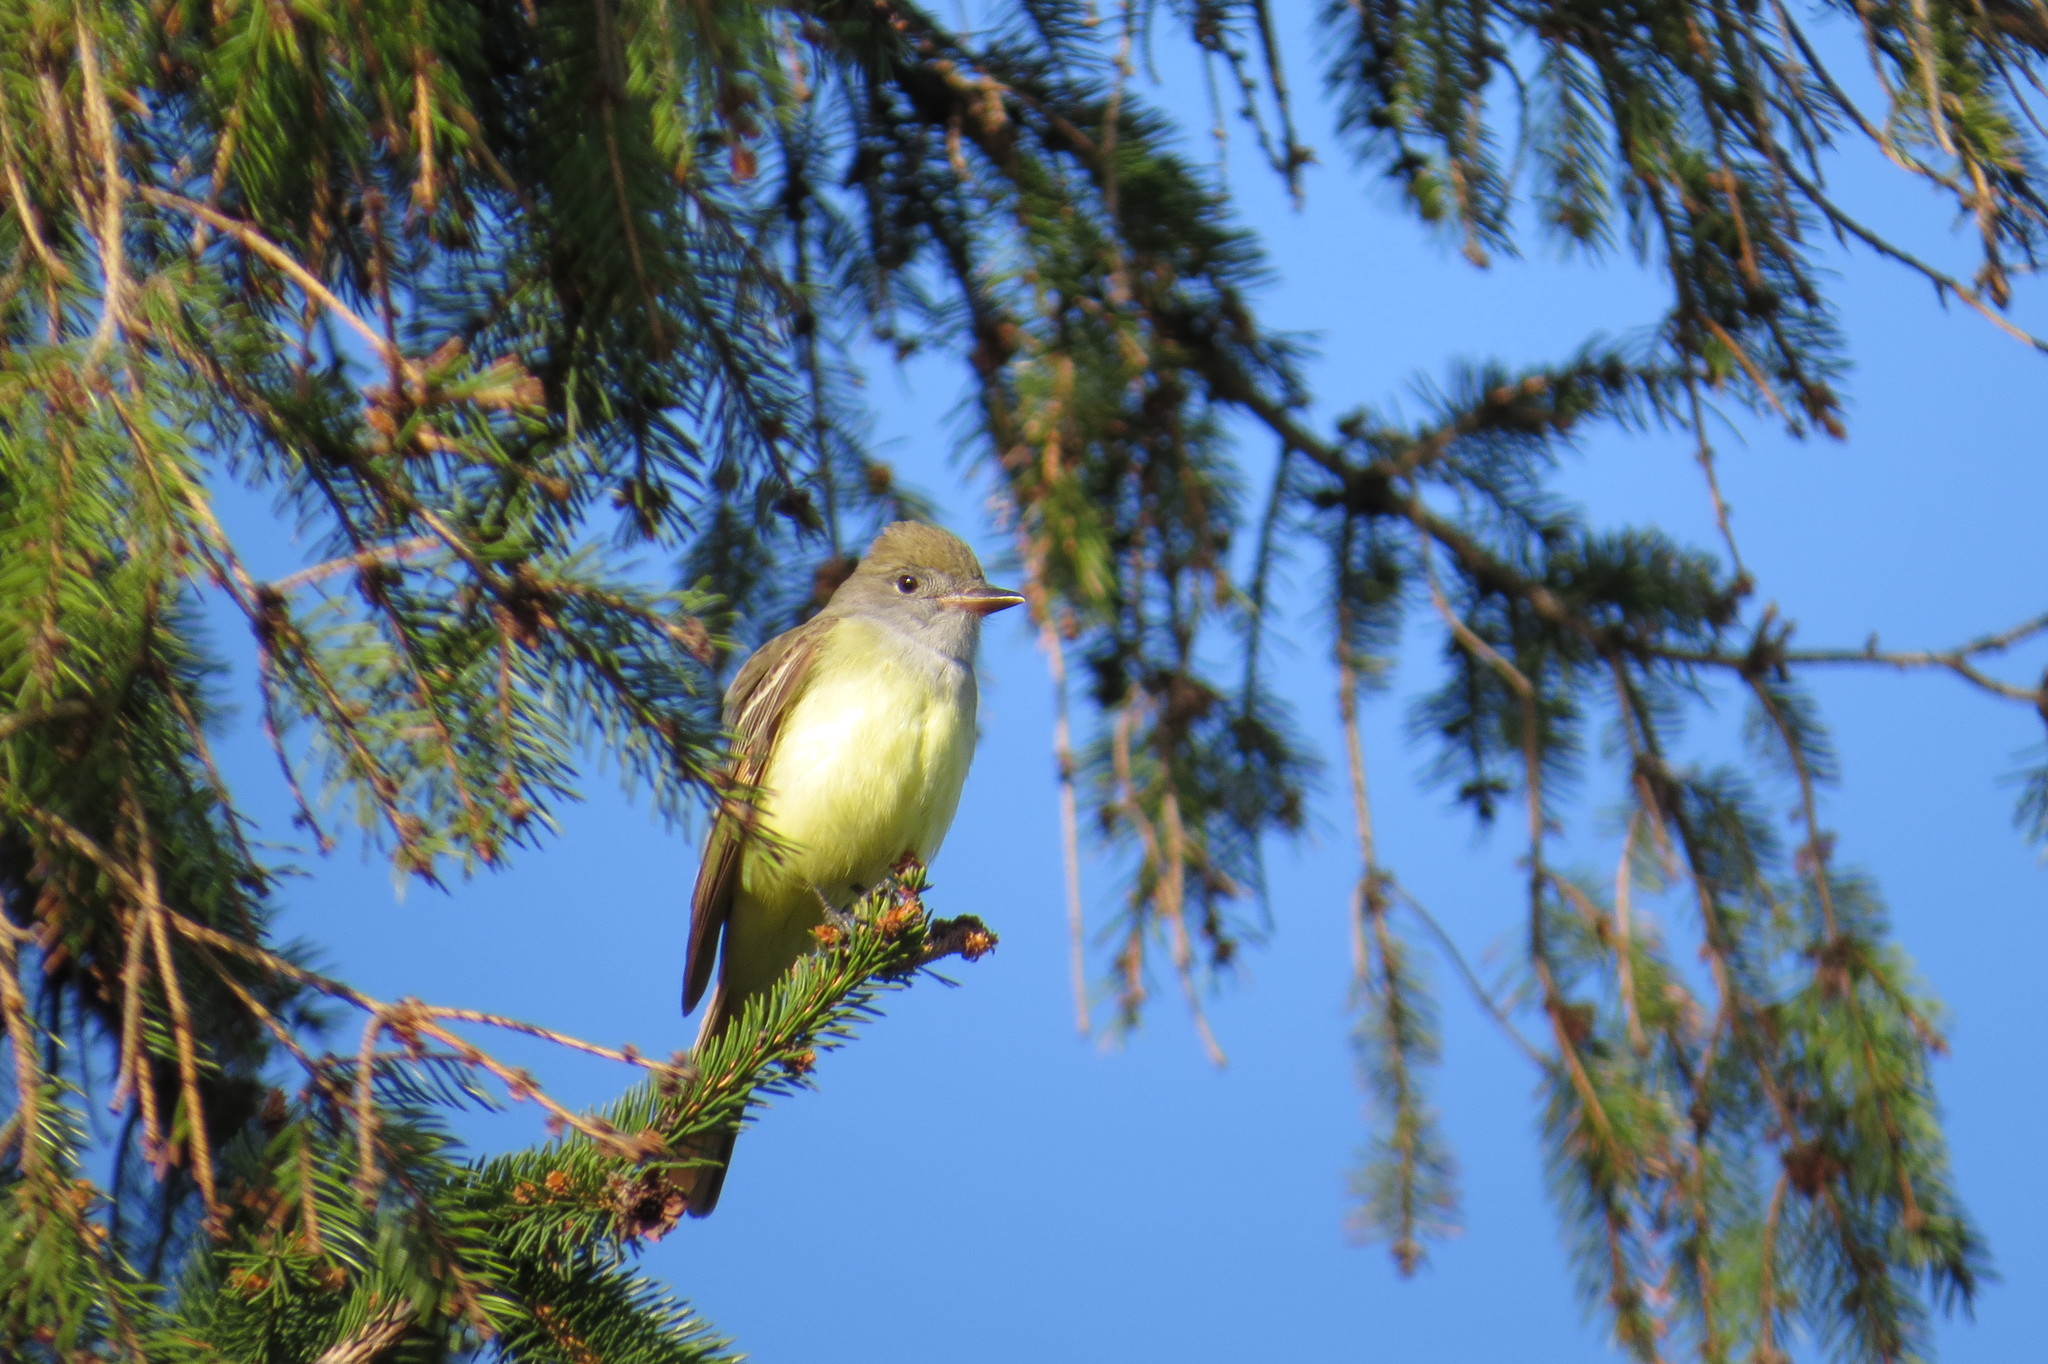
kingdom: Animalia
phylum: Chordata
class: Aves
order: Passeriformes
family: Tyrannidae
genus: Myiarchus
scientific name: Myiarchus crinitus
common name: Great crested flycatcher
